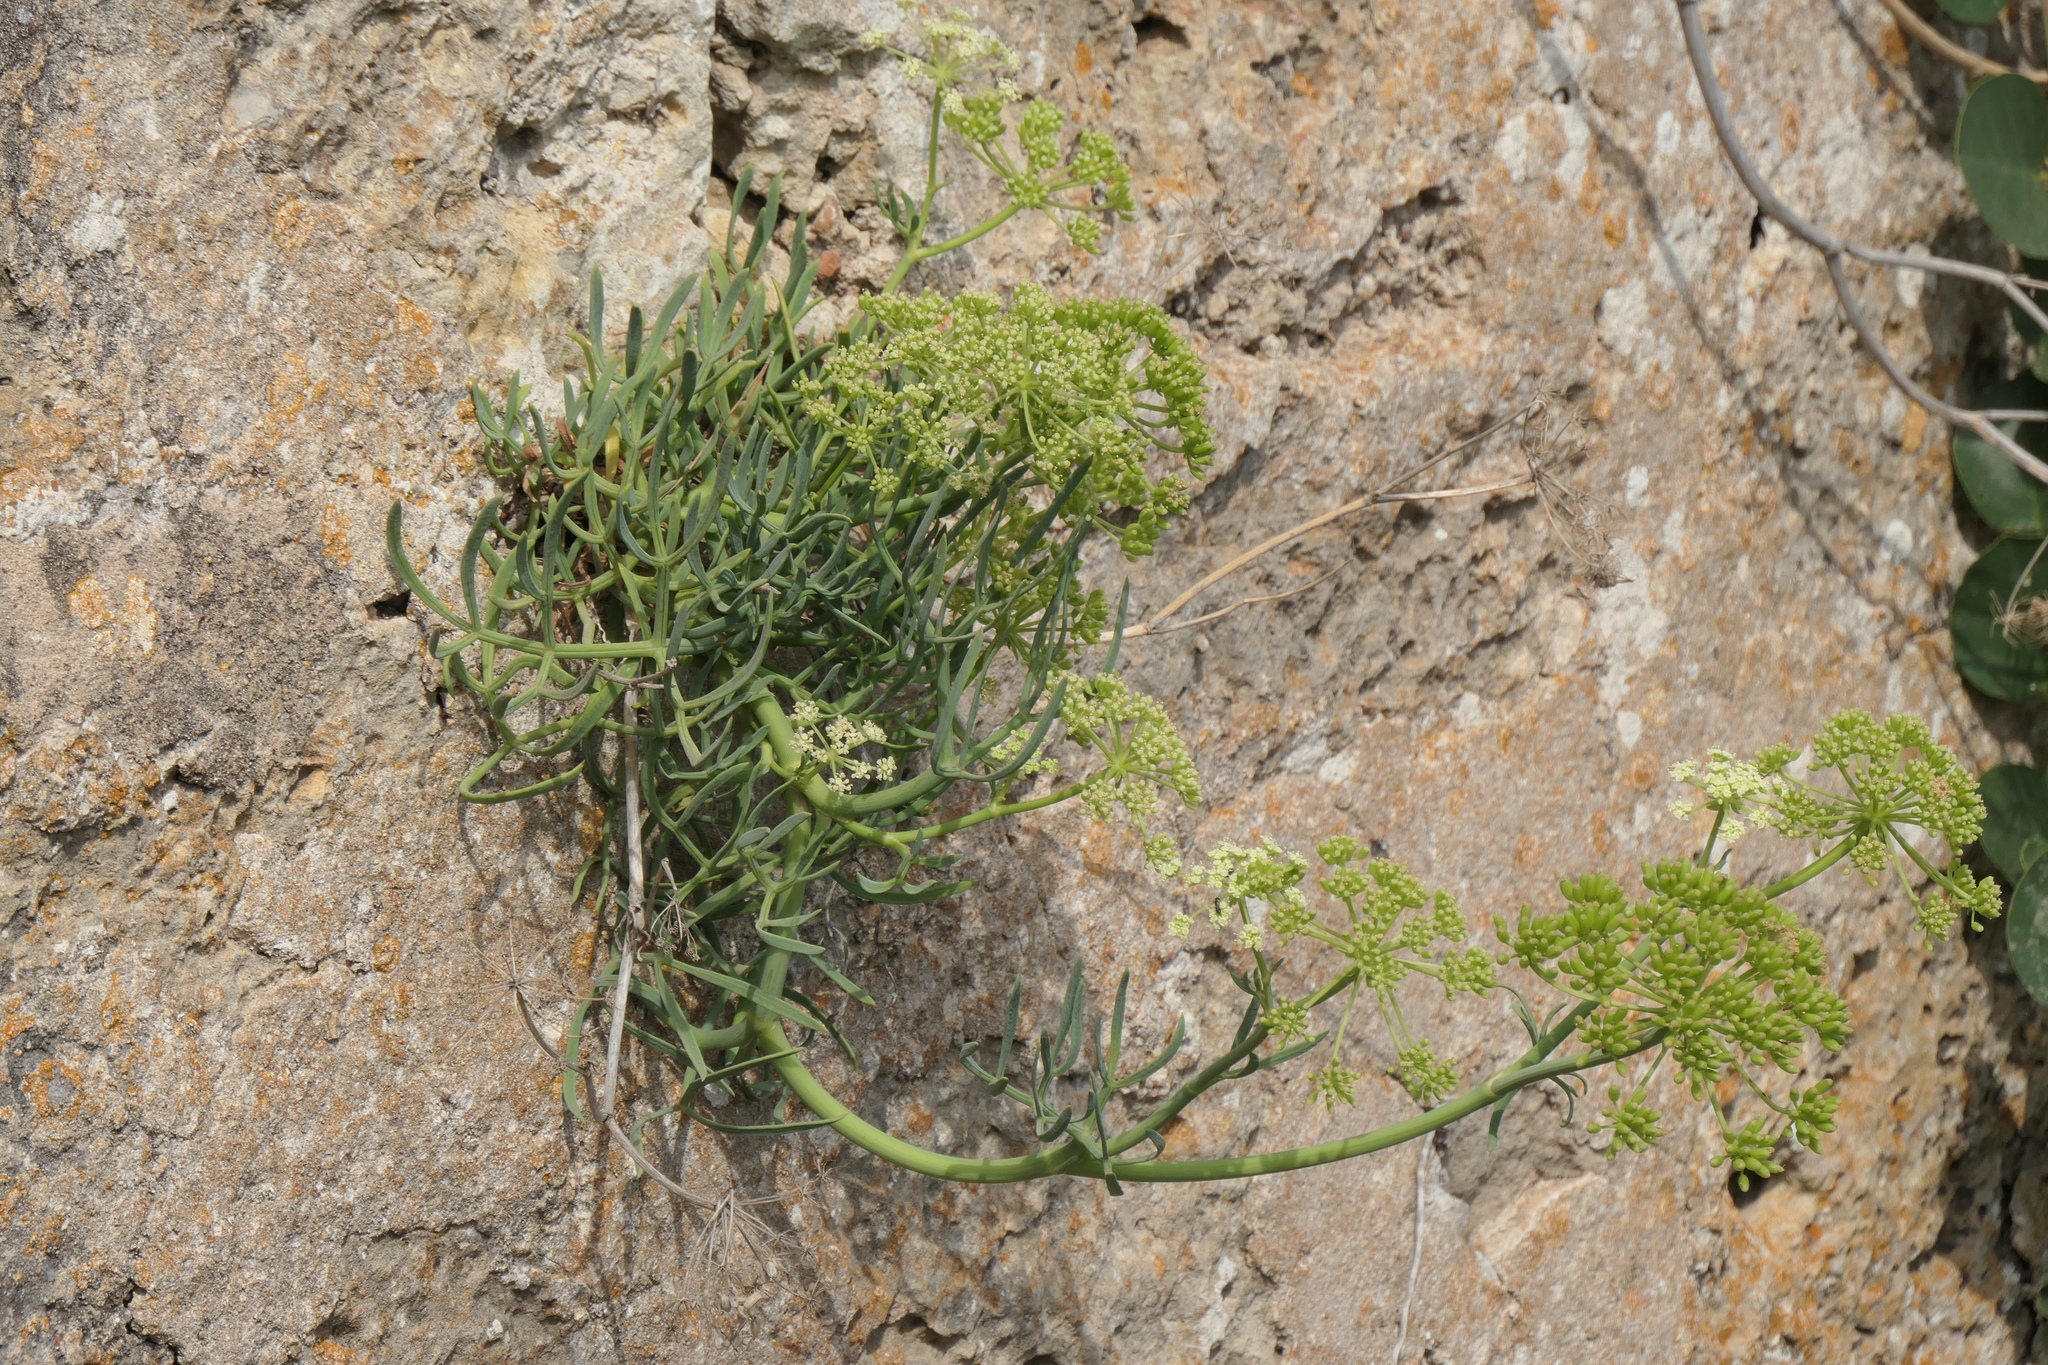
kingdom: Plantae
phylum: Tracheophyta
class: Magnoliopsida
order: Apiales
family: Apiaceae
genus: Crithmum
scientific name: Crithmum maritimum
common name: Rock samphire
